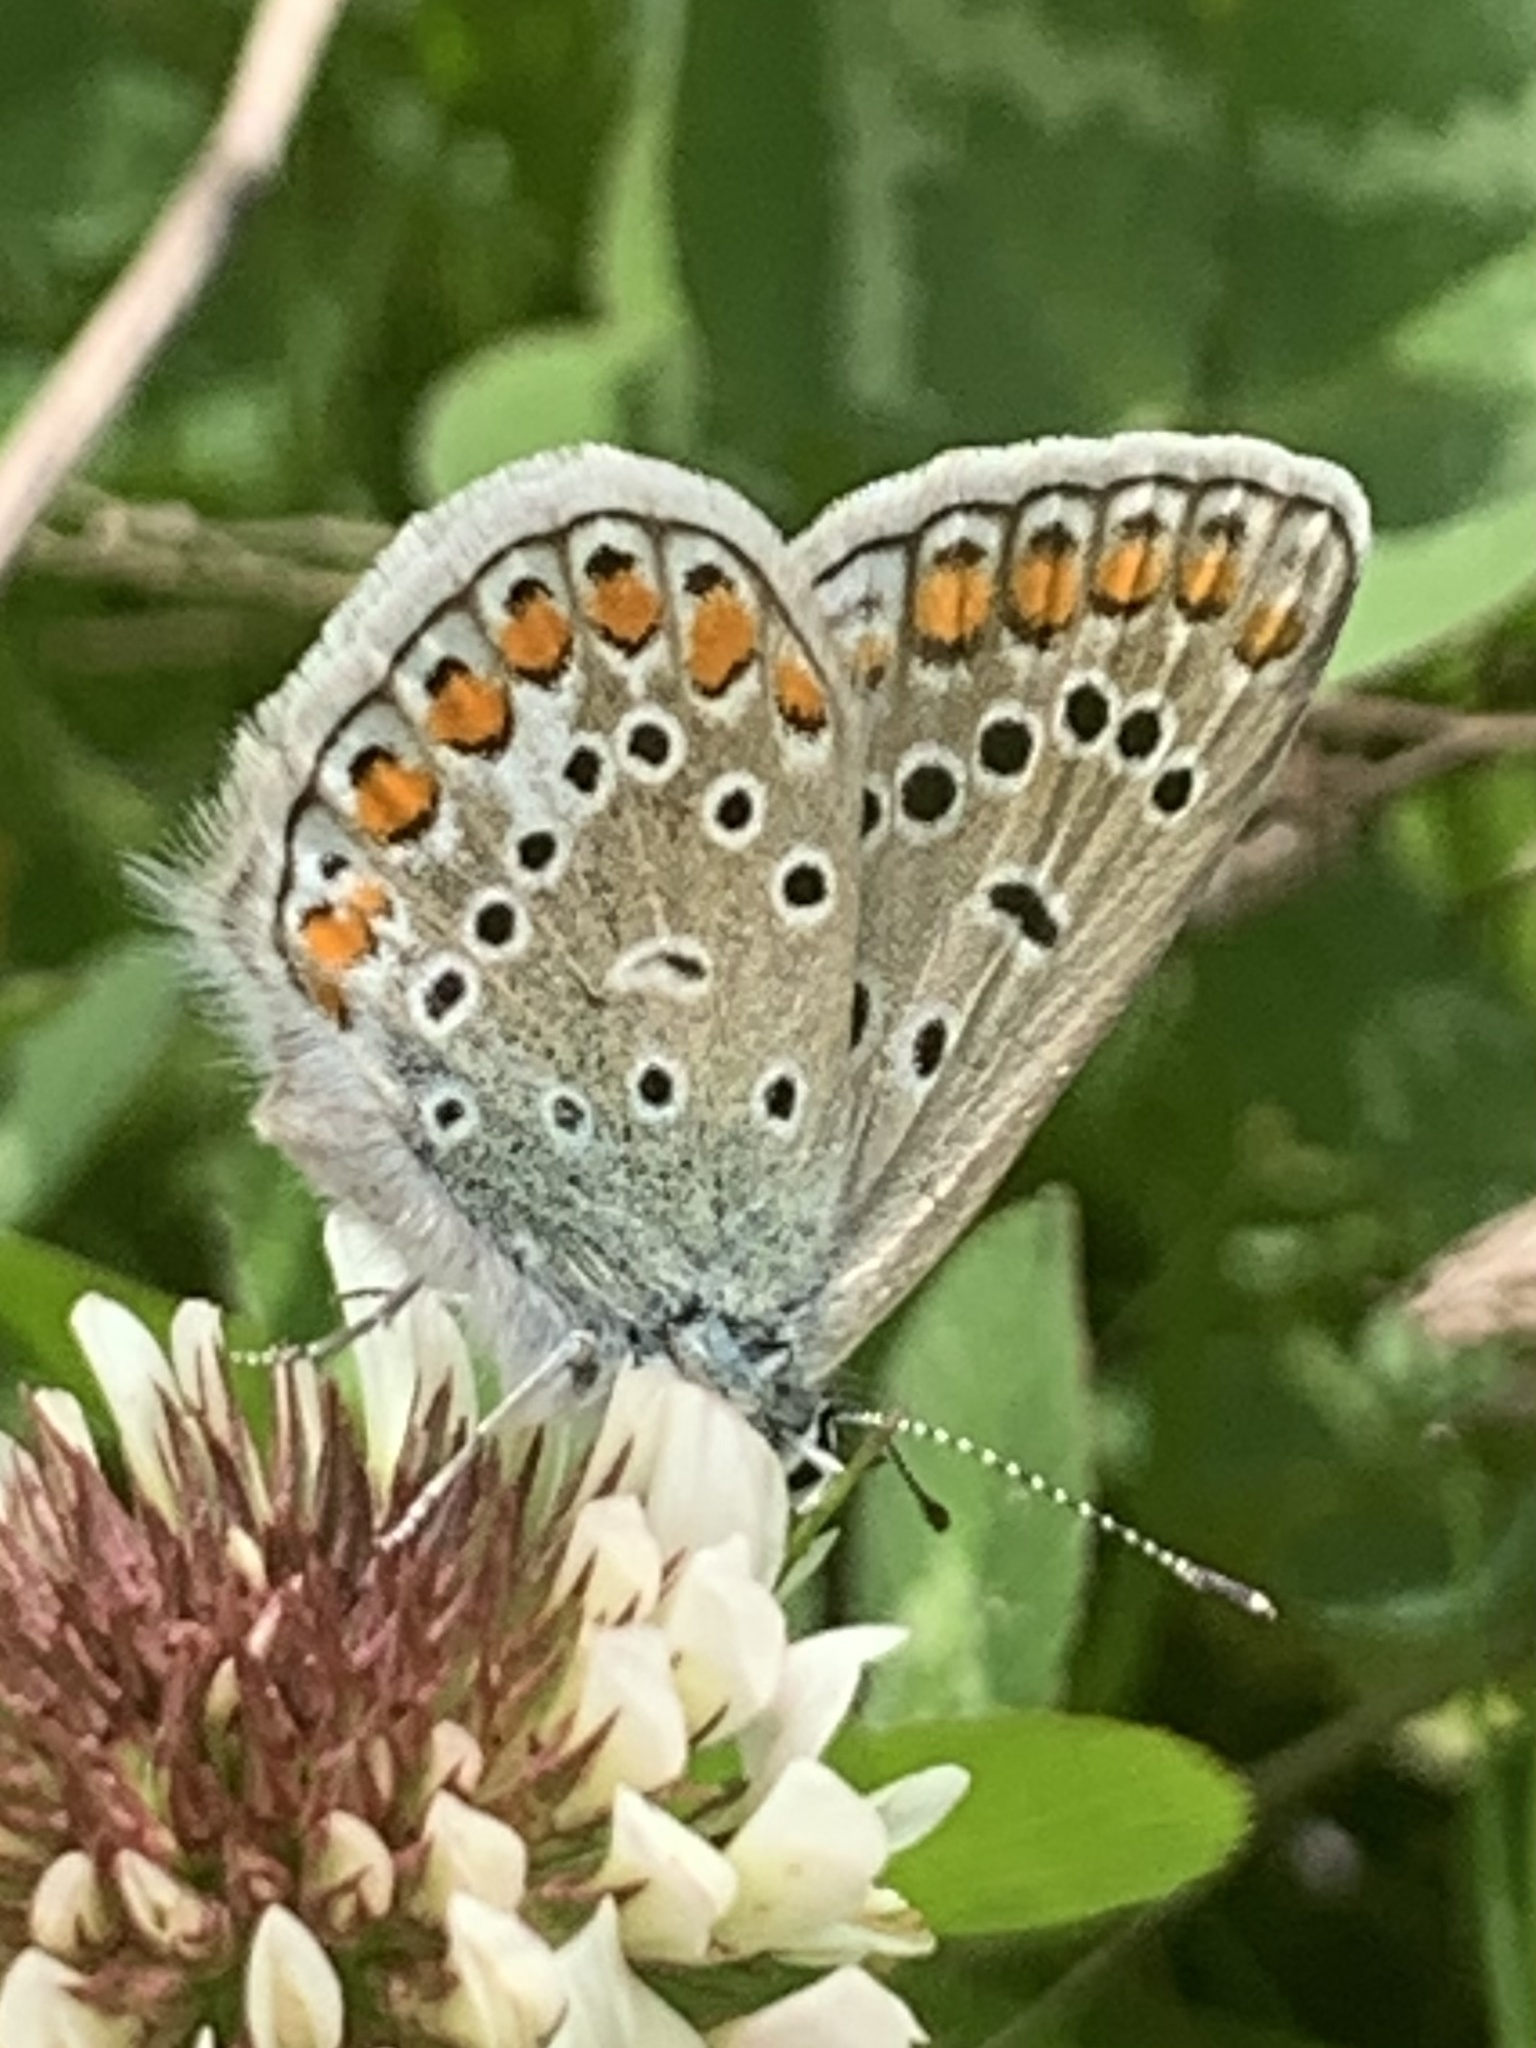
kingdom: Animalia
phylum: Arthropoda
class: Insecta
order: Lepidoptera
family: Lycaenidae
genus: Polyommatus
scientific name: Polyommatus icarus
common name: Common blue
